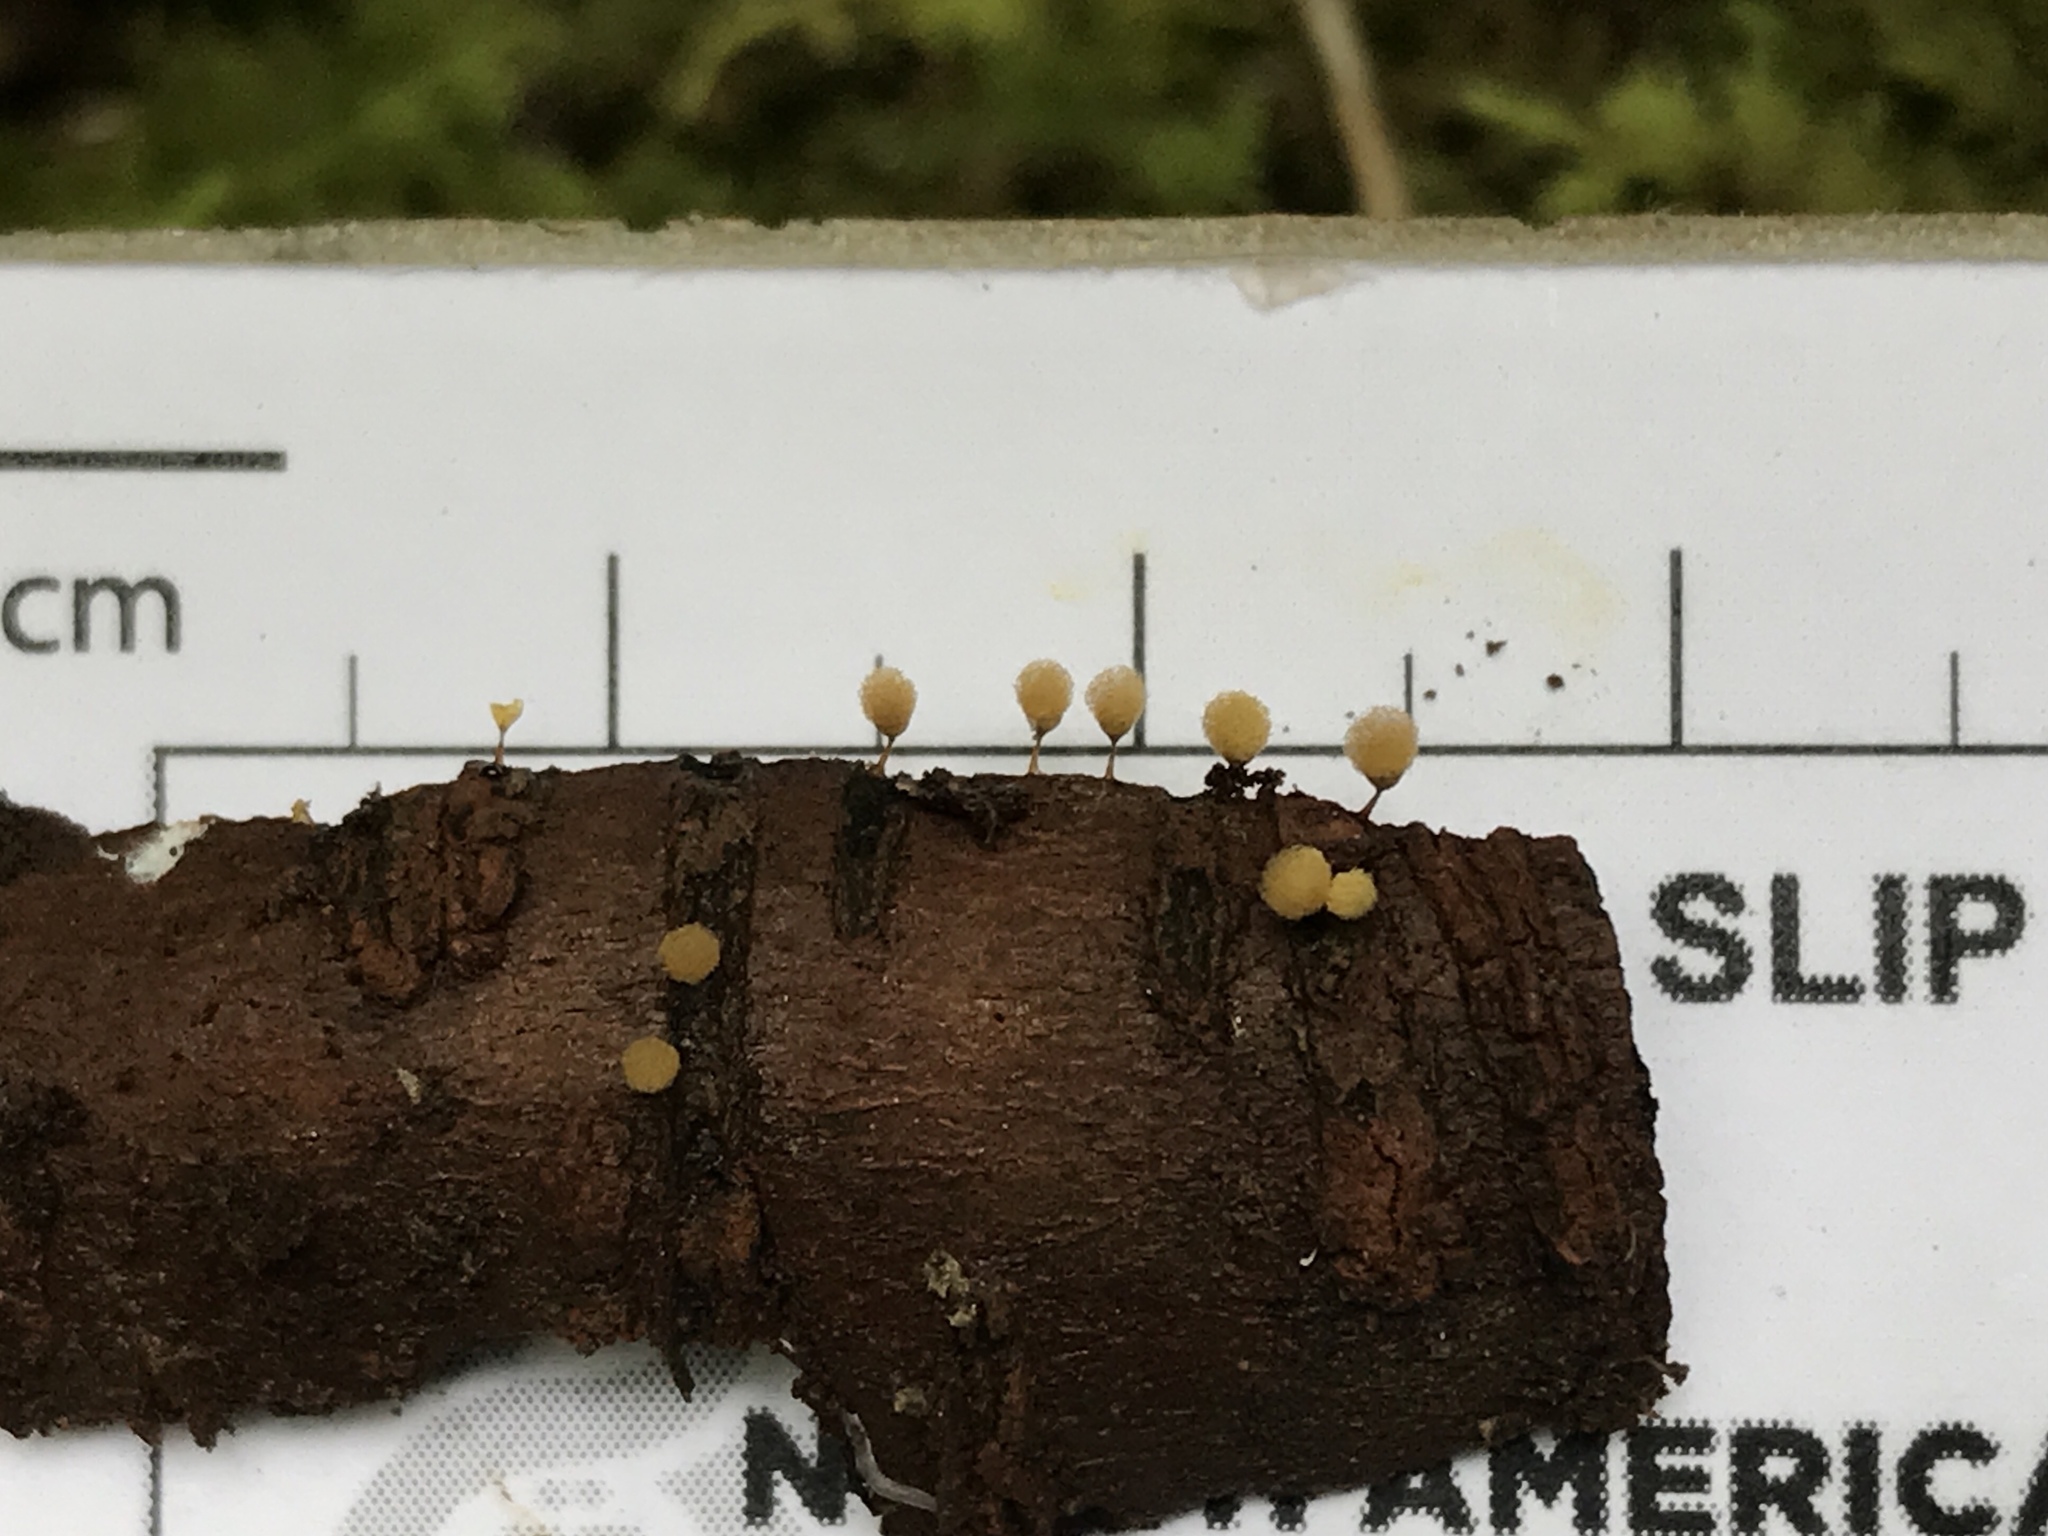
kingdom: Protozoa
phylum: Mycetozoa
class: Myxomycetes
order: Trichiales
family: Arcyriaceae
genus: Hemitrichia
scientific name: Hemitrichia calyculata
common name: Push pin slime mold
